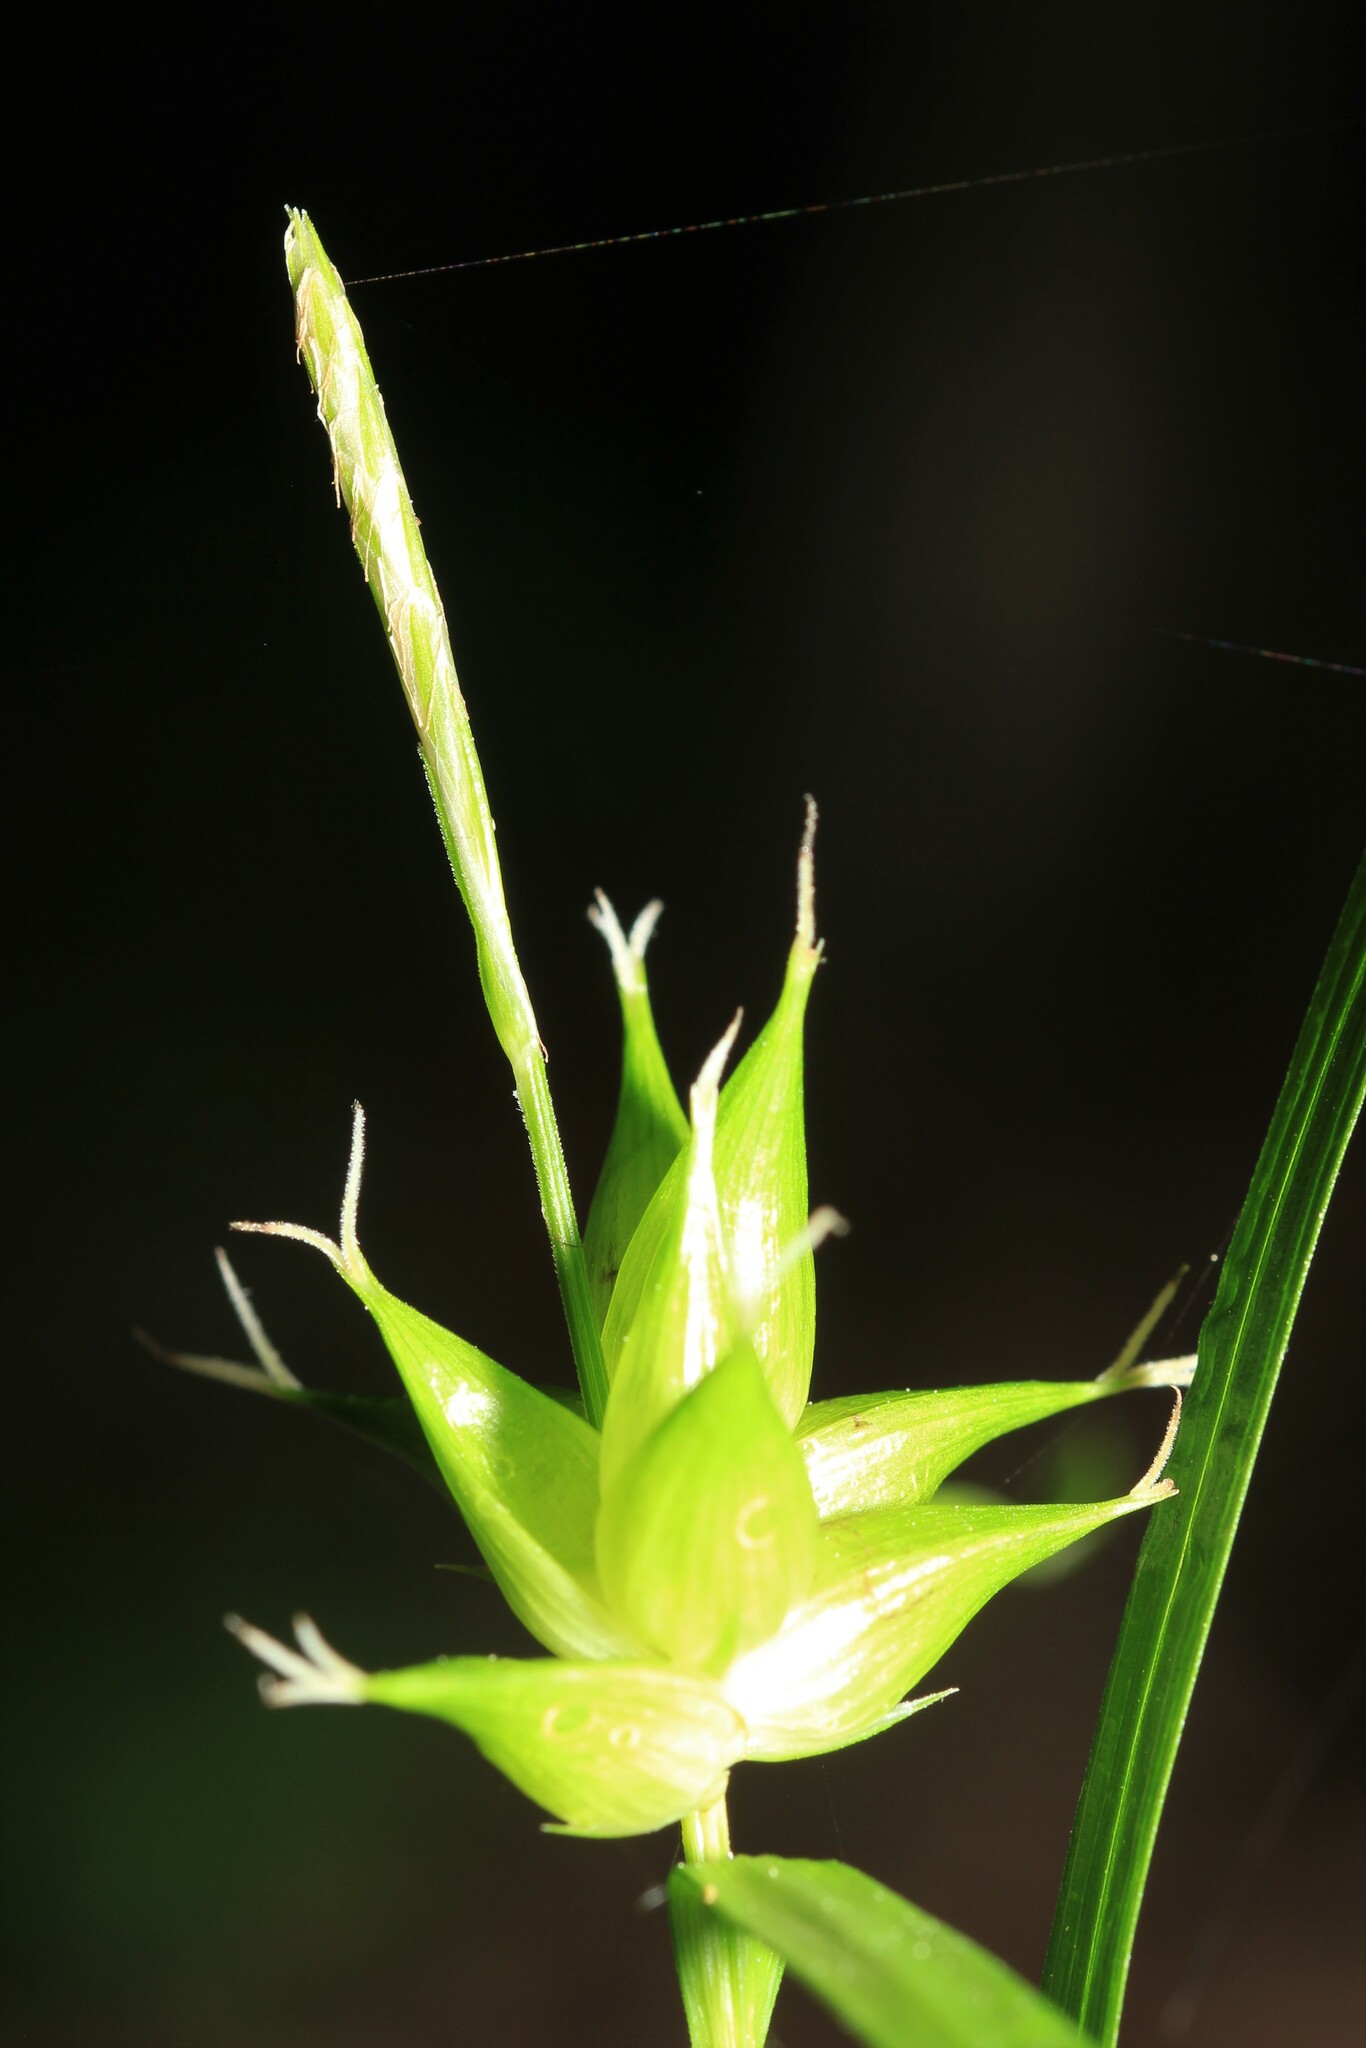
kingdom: Plantae
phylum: Tracheophyta
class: Liliopsida
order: Poales
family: Cyperaceae
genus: Carex
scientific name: Carex intumescens
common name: Greater bladder sedge
